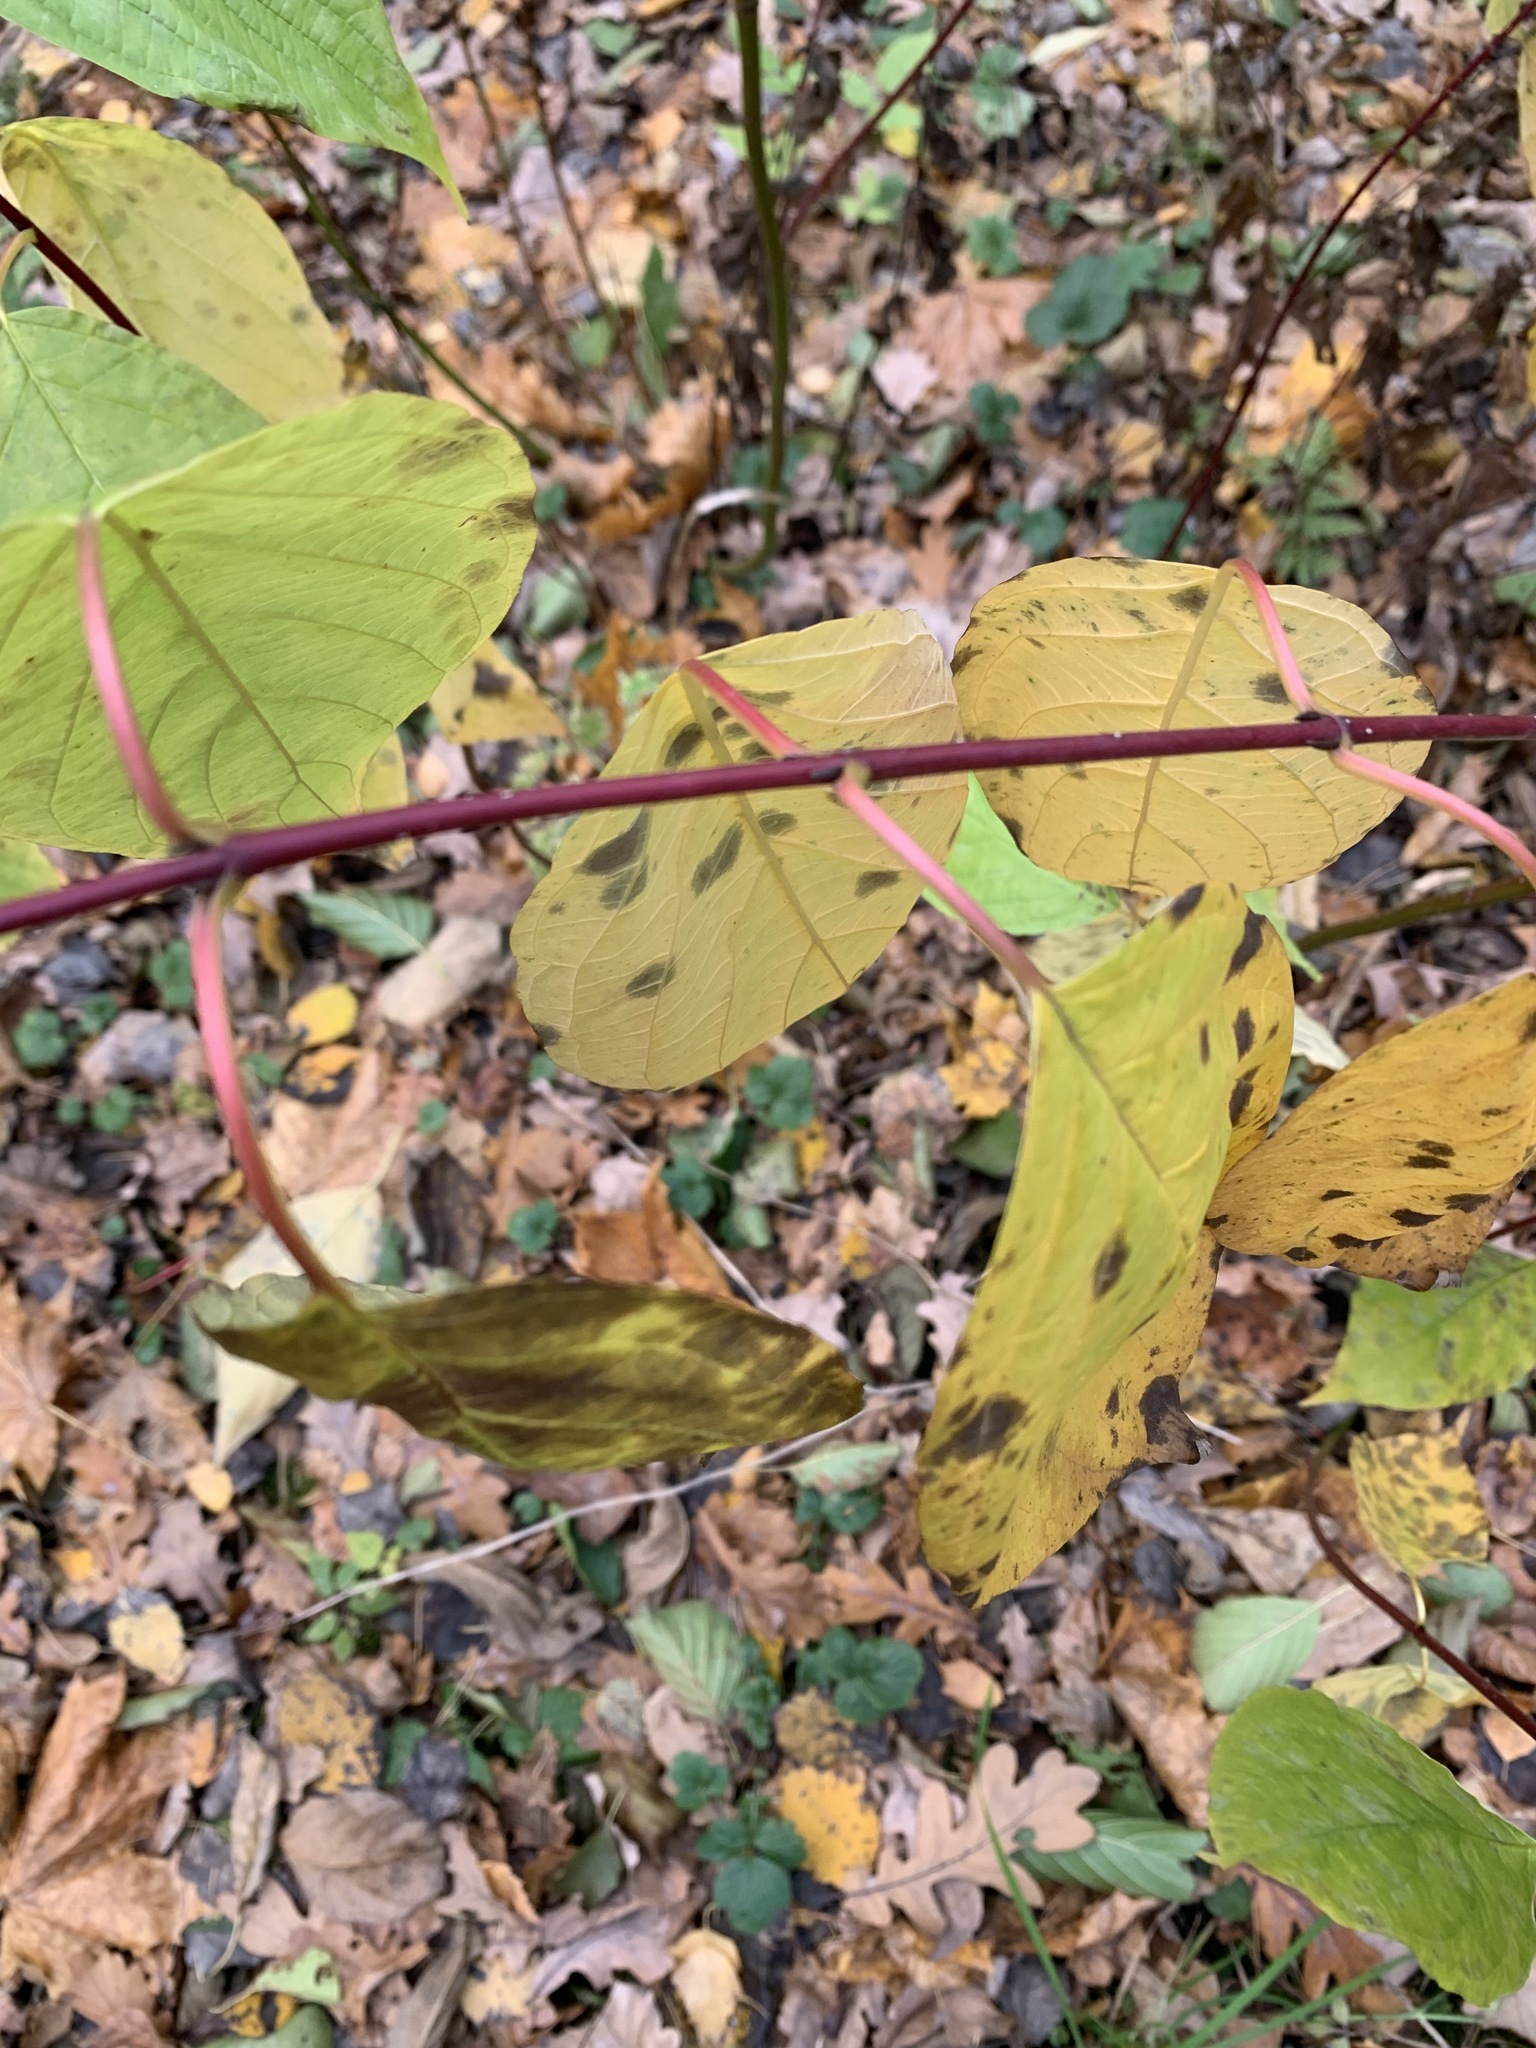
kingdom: Plantae
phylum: Tracheophyta
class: Magnoliopsida
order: Cornales
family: Cornaceae
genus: Cornus
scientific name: Cornus sericea
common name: Red-osier dogwood
